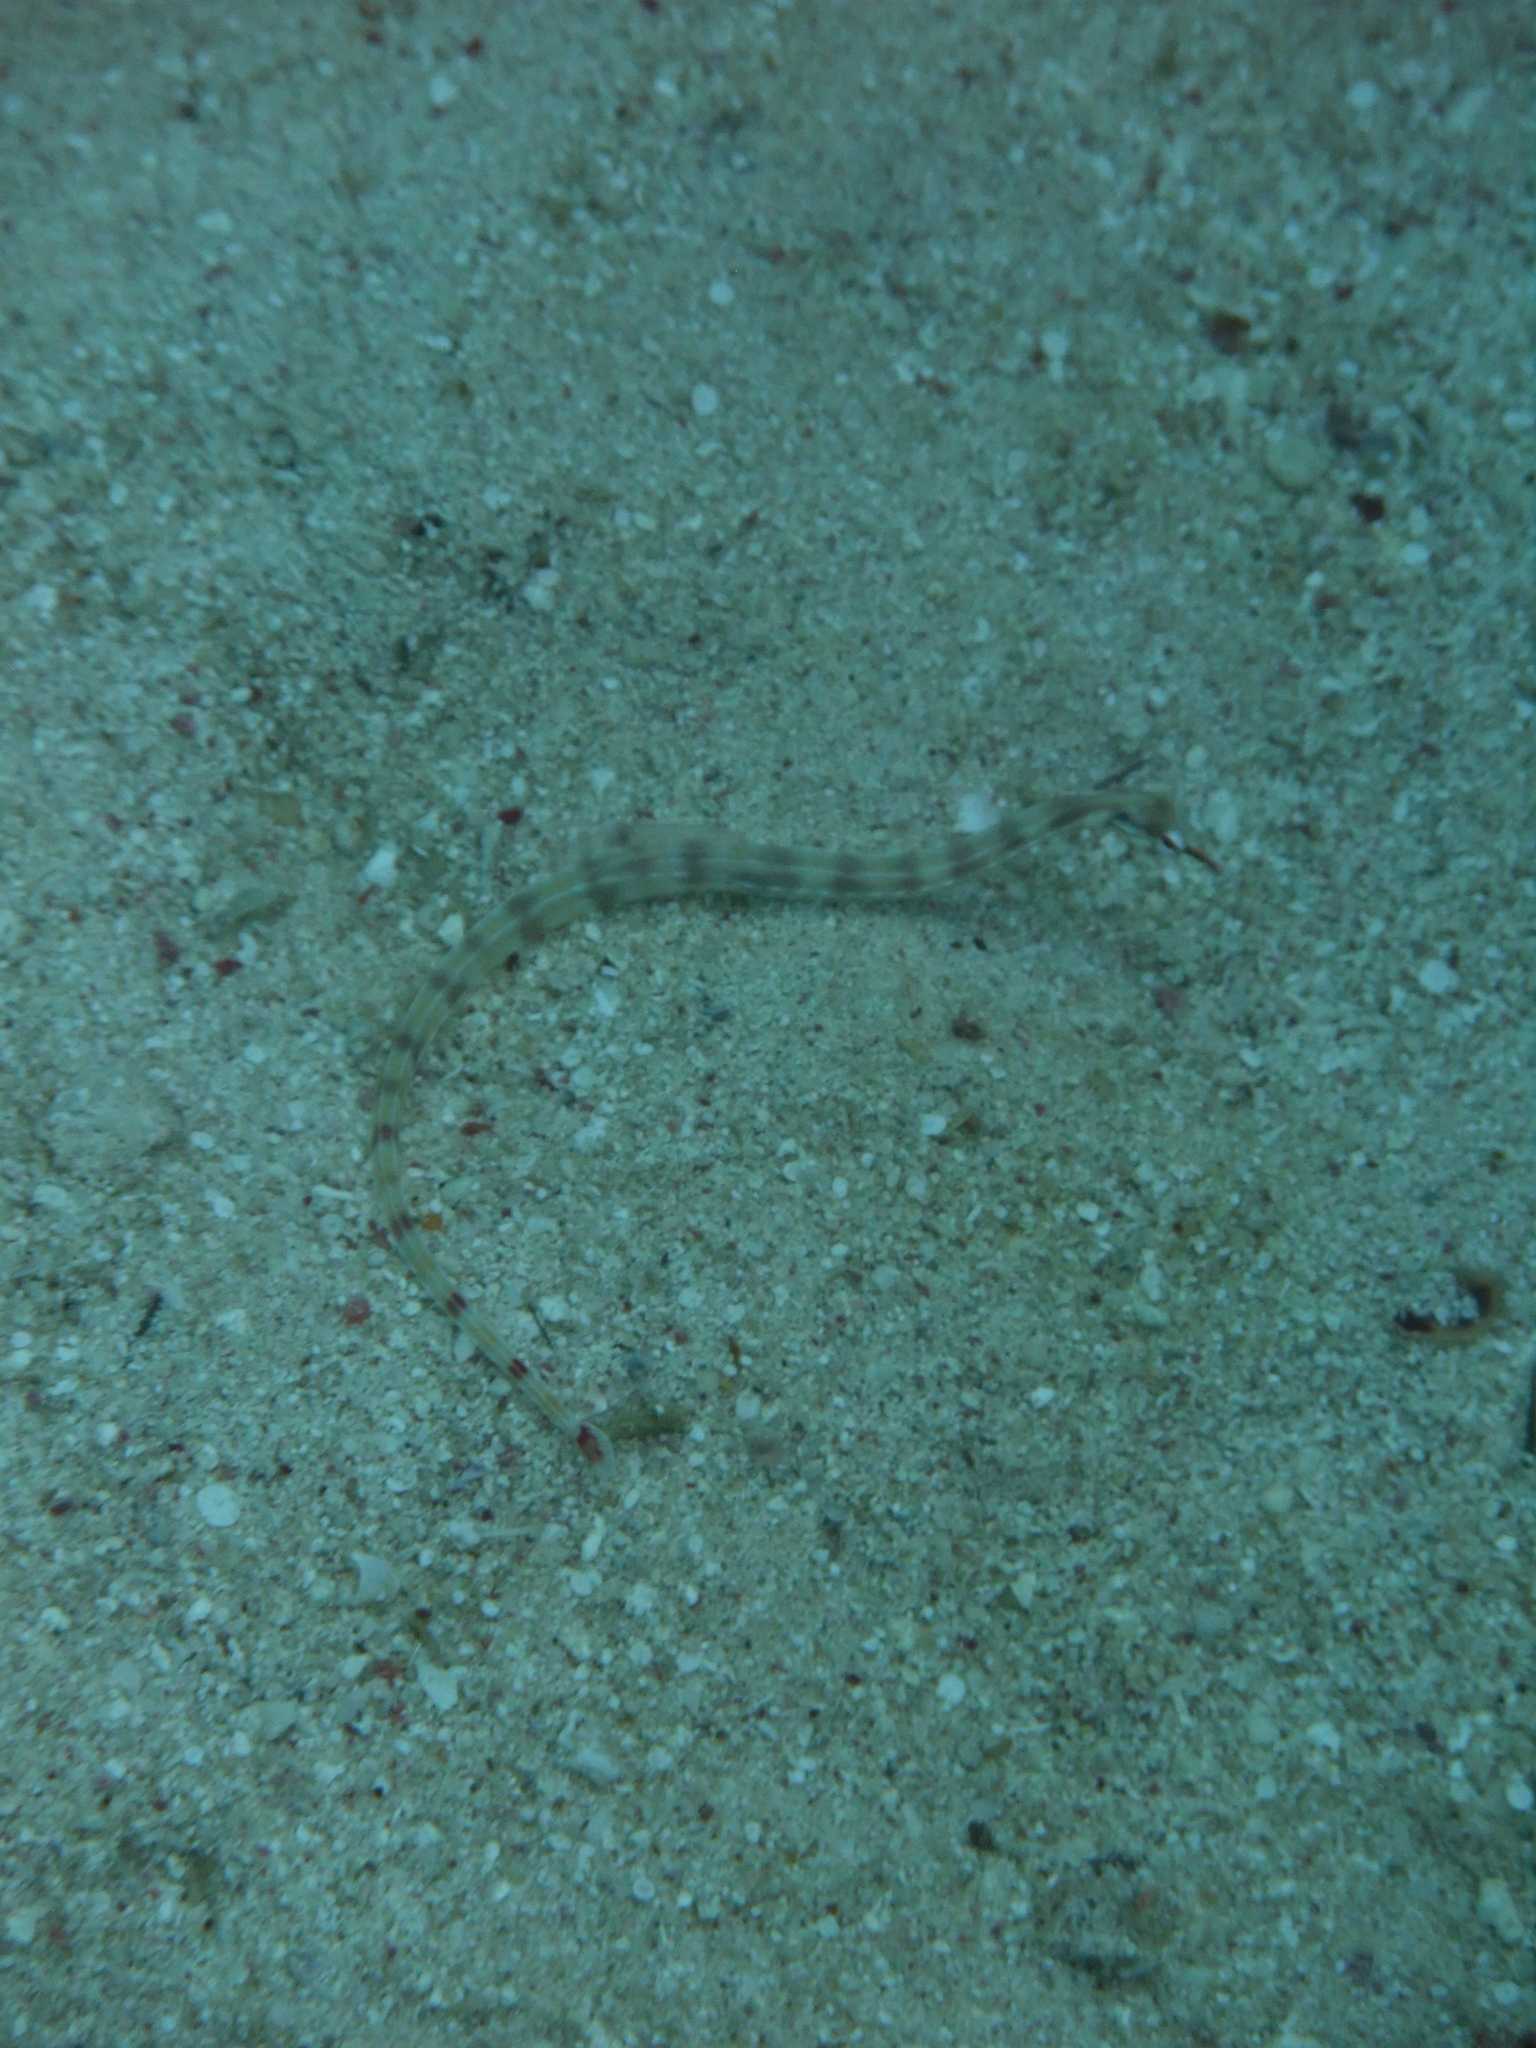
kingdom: Animalia
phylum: Chordata
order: Syngnathiformes
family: Syngnathidae
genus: Corythoichthys
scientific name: Corythoichthys flavofasciatus
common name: Banded pipefish
